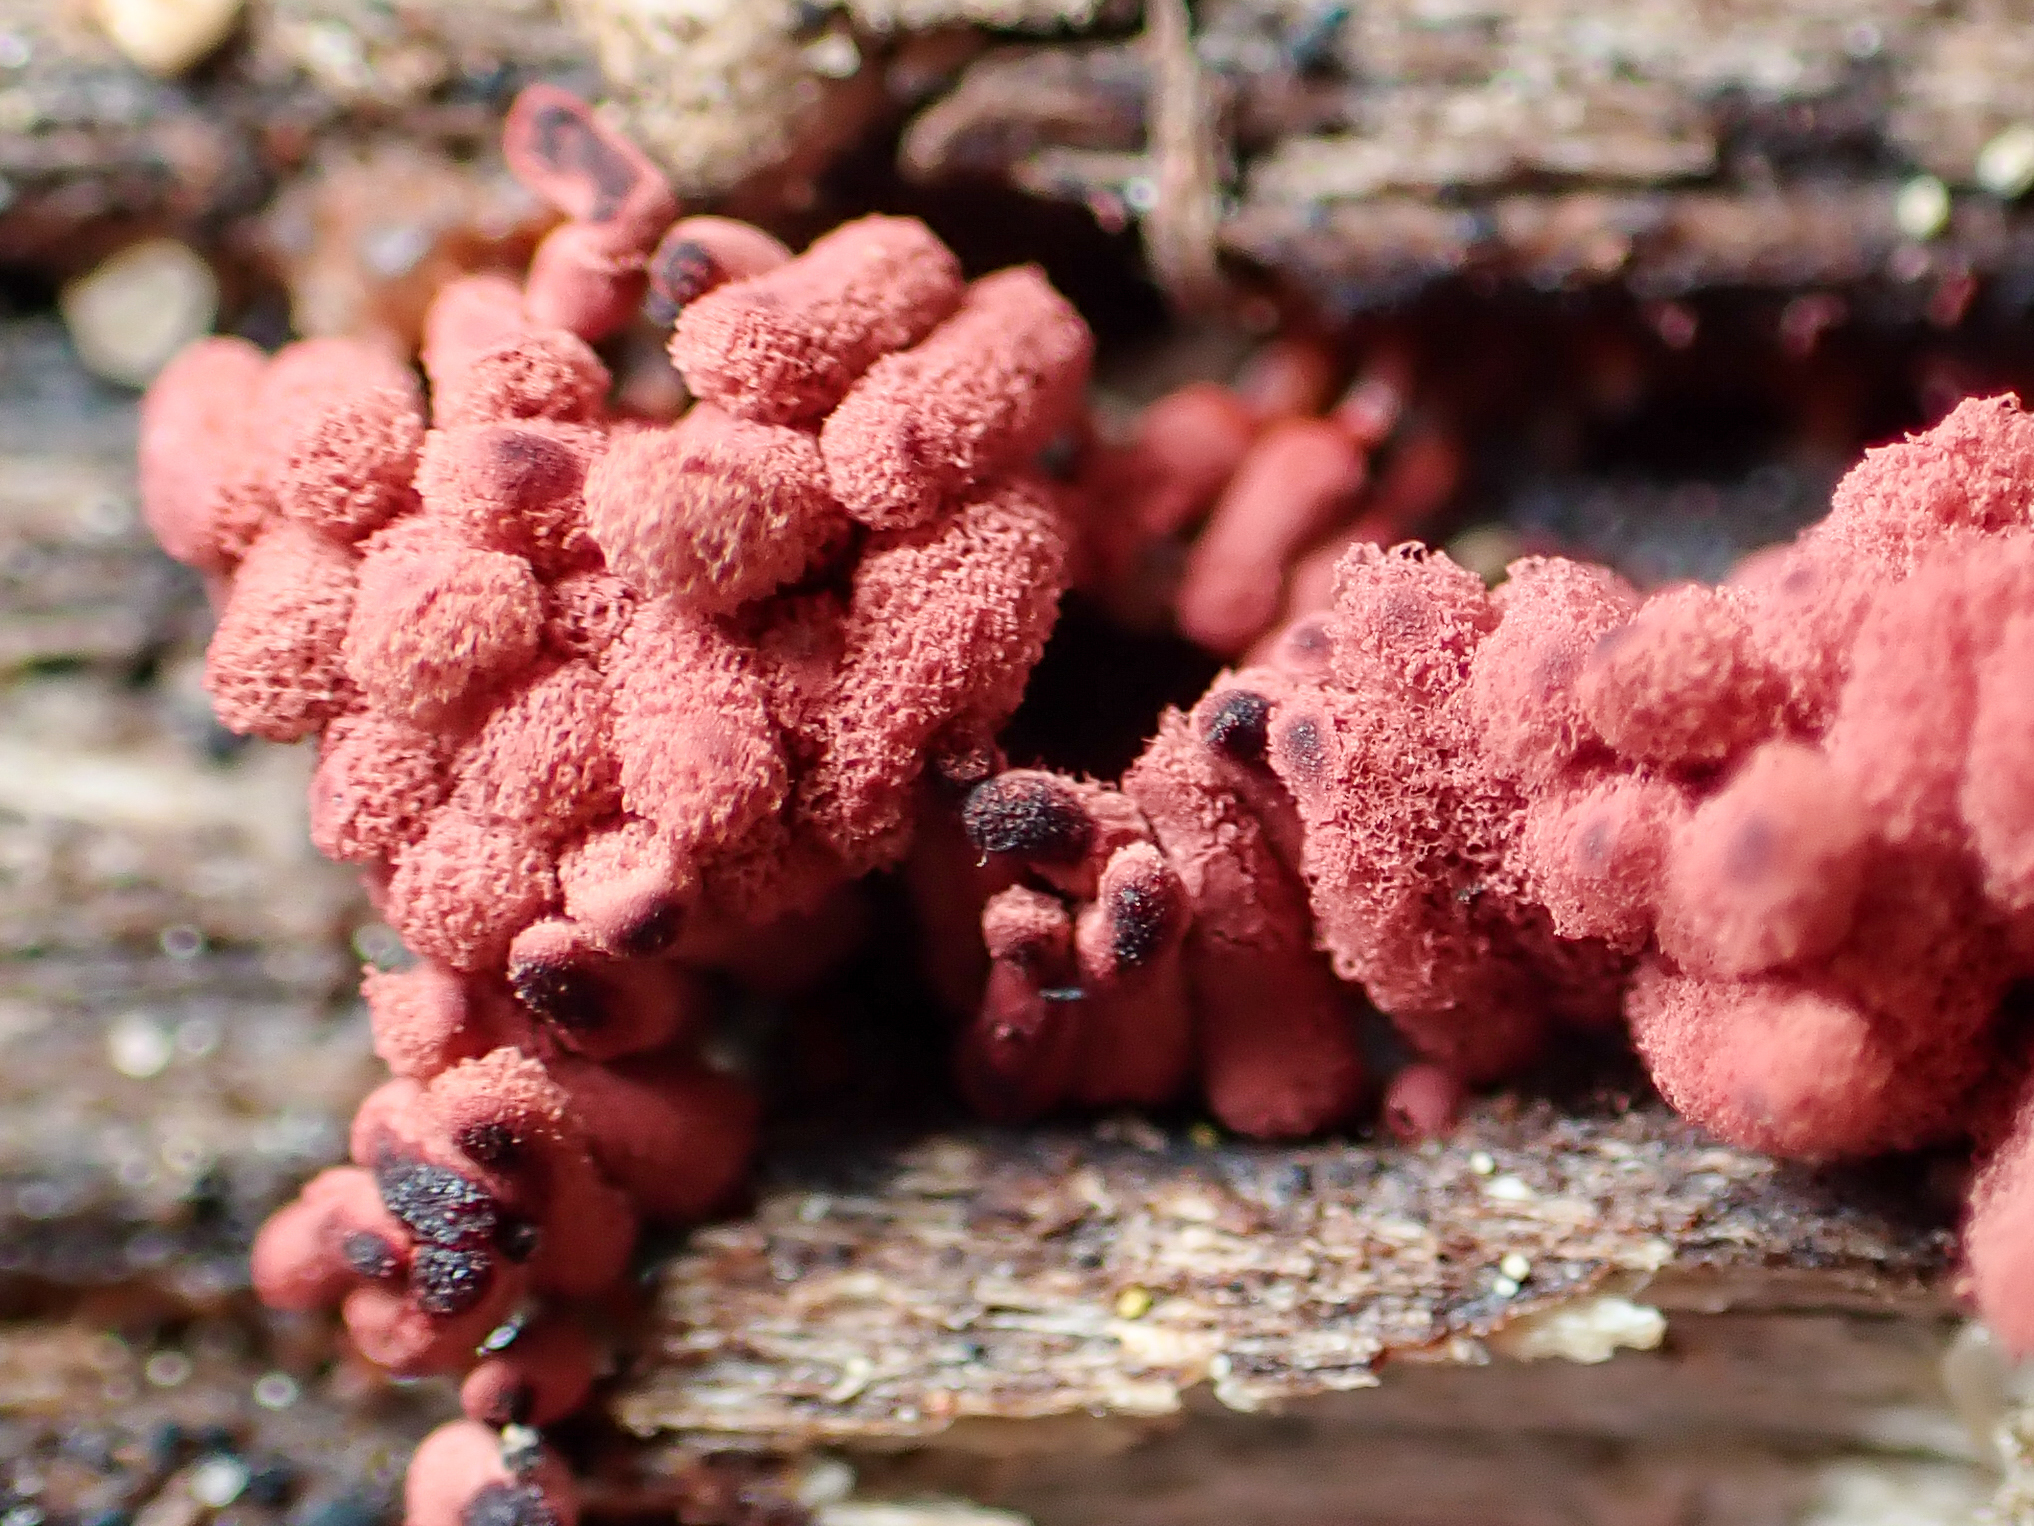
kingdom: Protozoa
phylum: Mycetozoa
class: Myxomycetes
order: Trichiales
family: Arcyriaceae
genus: Arcyria
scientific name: Arcyria denudata
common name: Carnival candy slime mold
